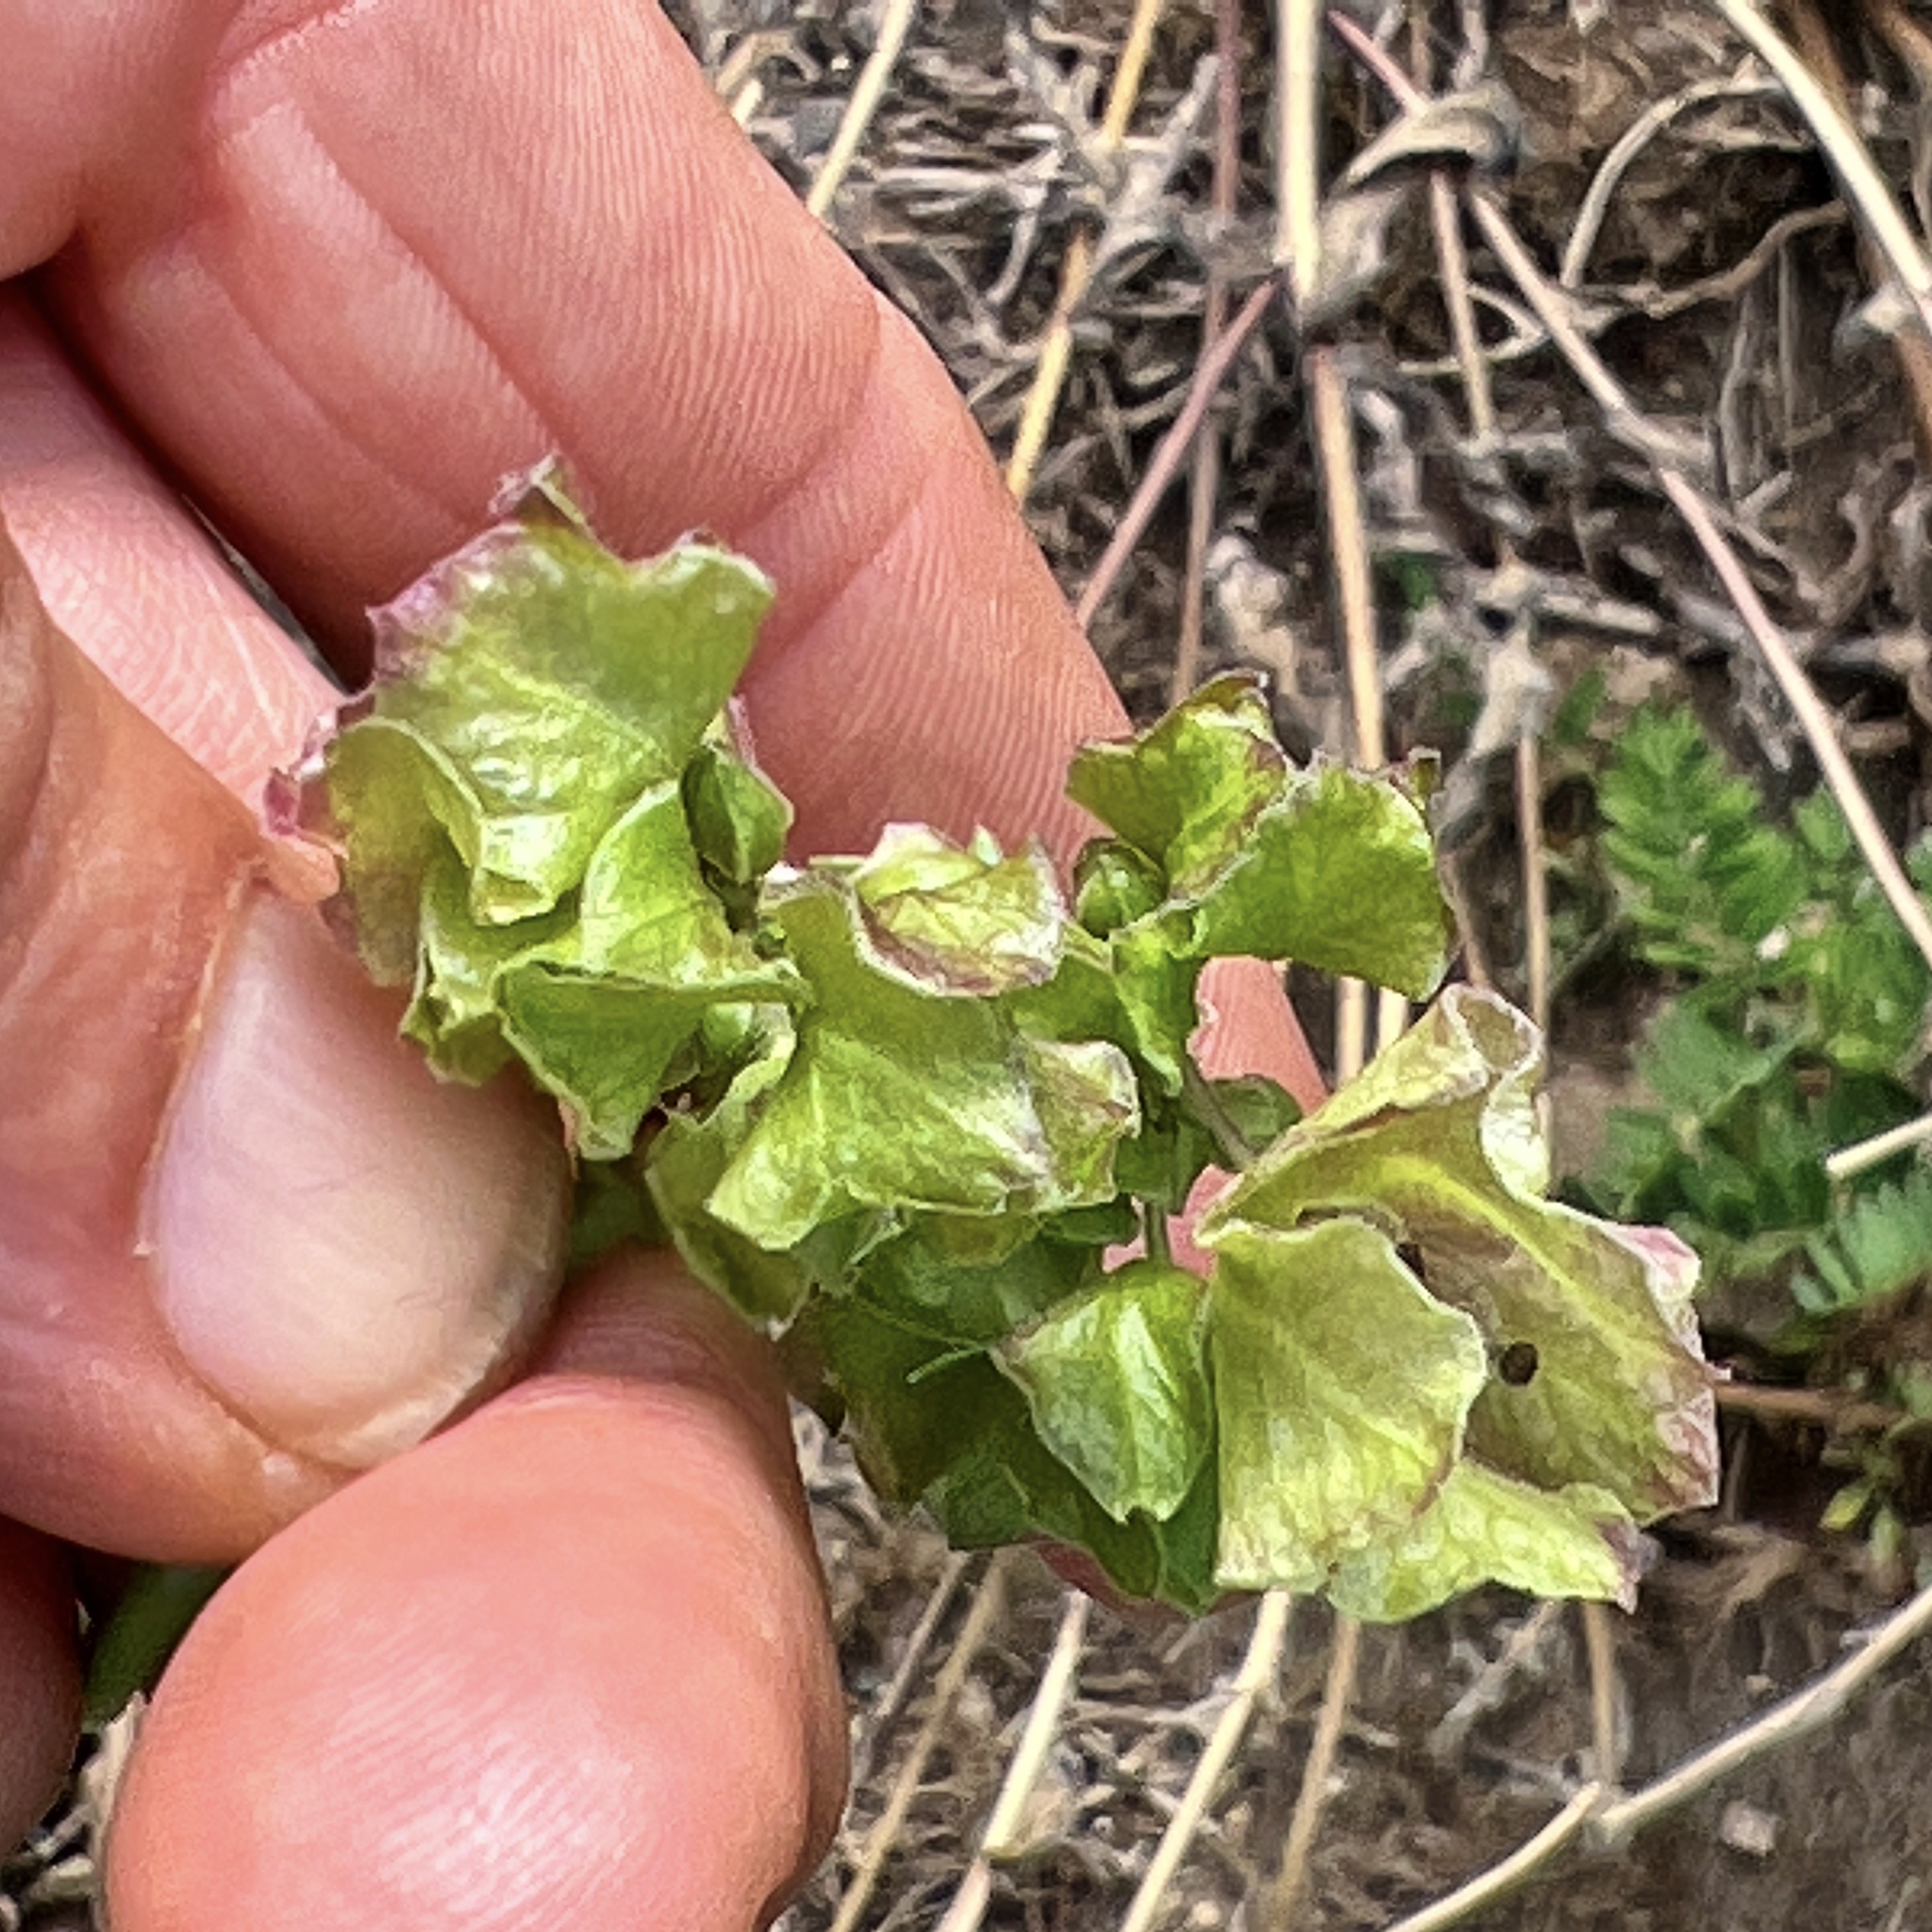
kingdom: Plantae
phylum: Tracheophyta
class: Magnoliopsida
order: Caryophyllales
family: Nyctaginaceae
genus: Mirabilis
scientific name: Mirabilis nyctaginea
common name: Umbrella wort
